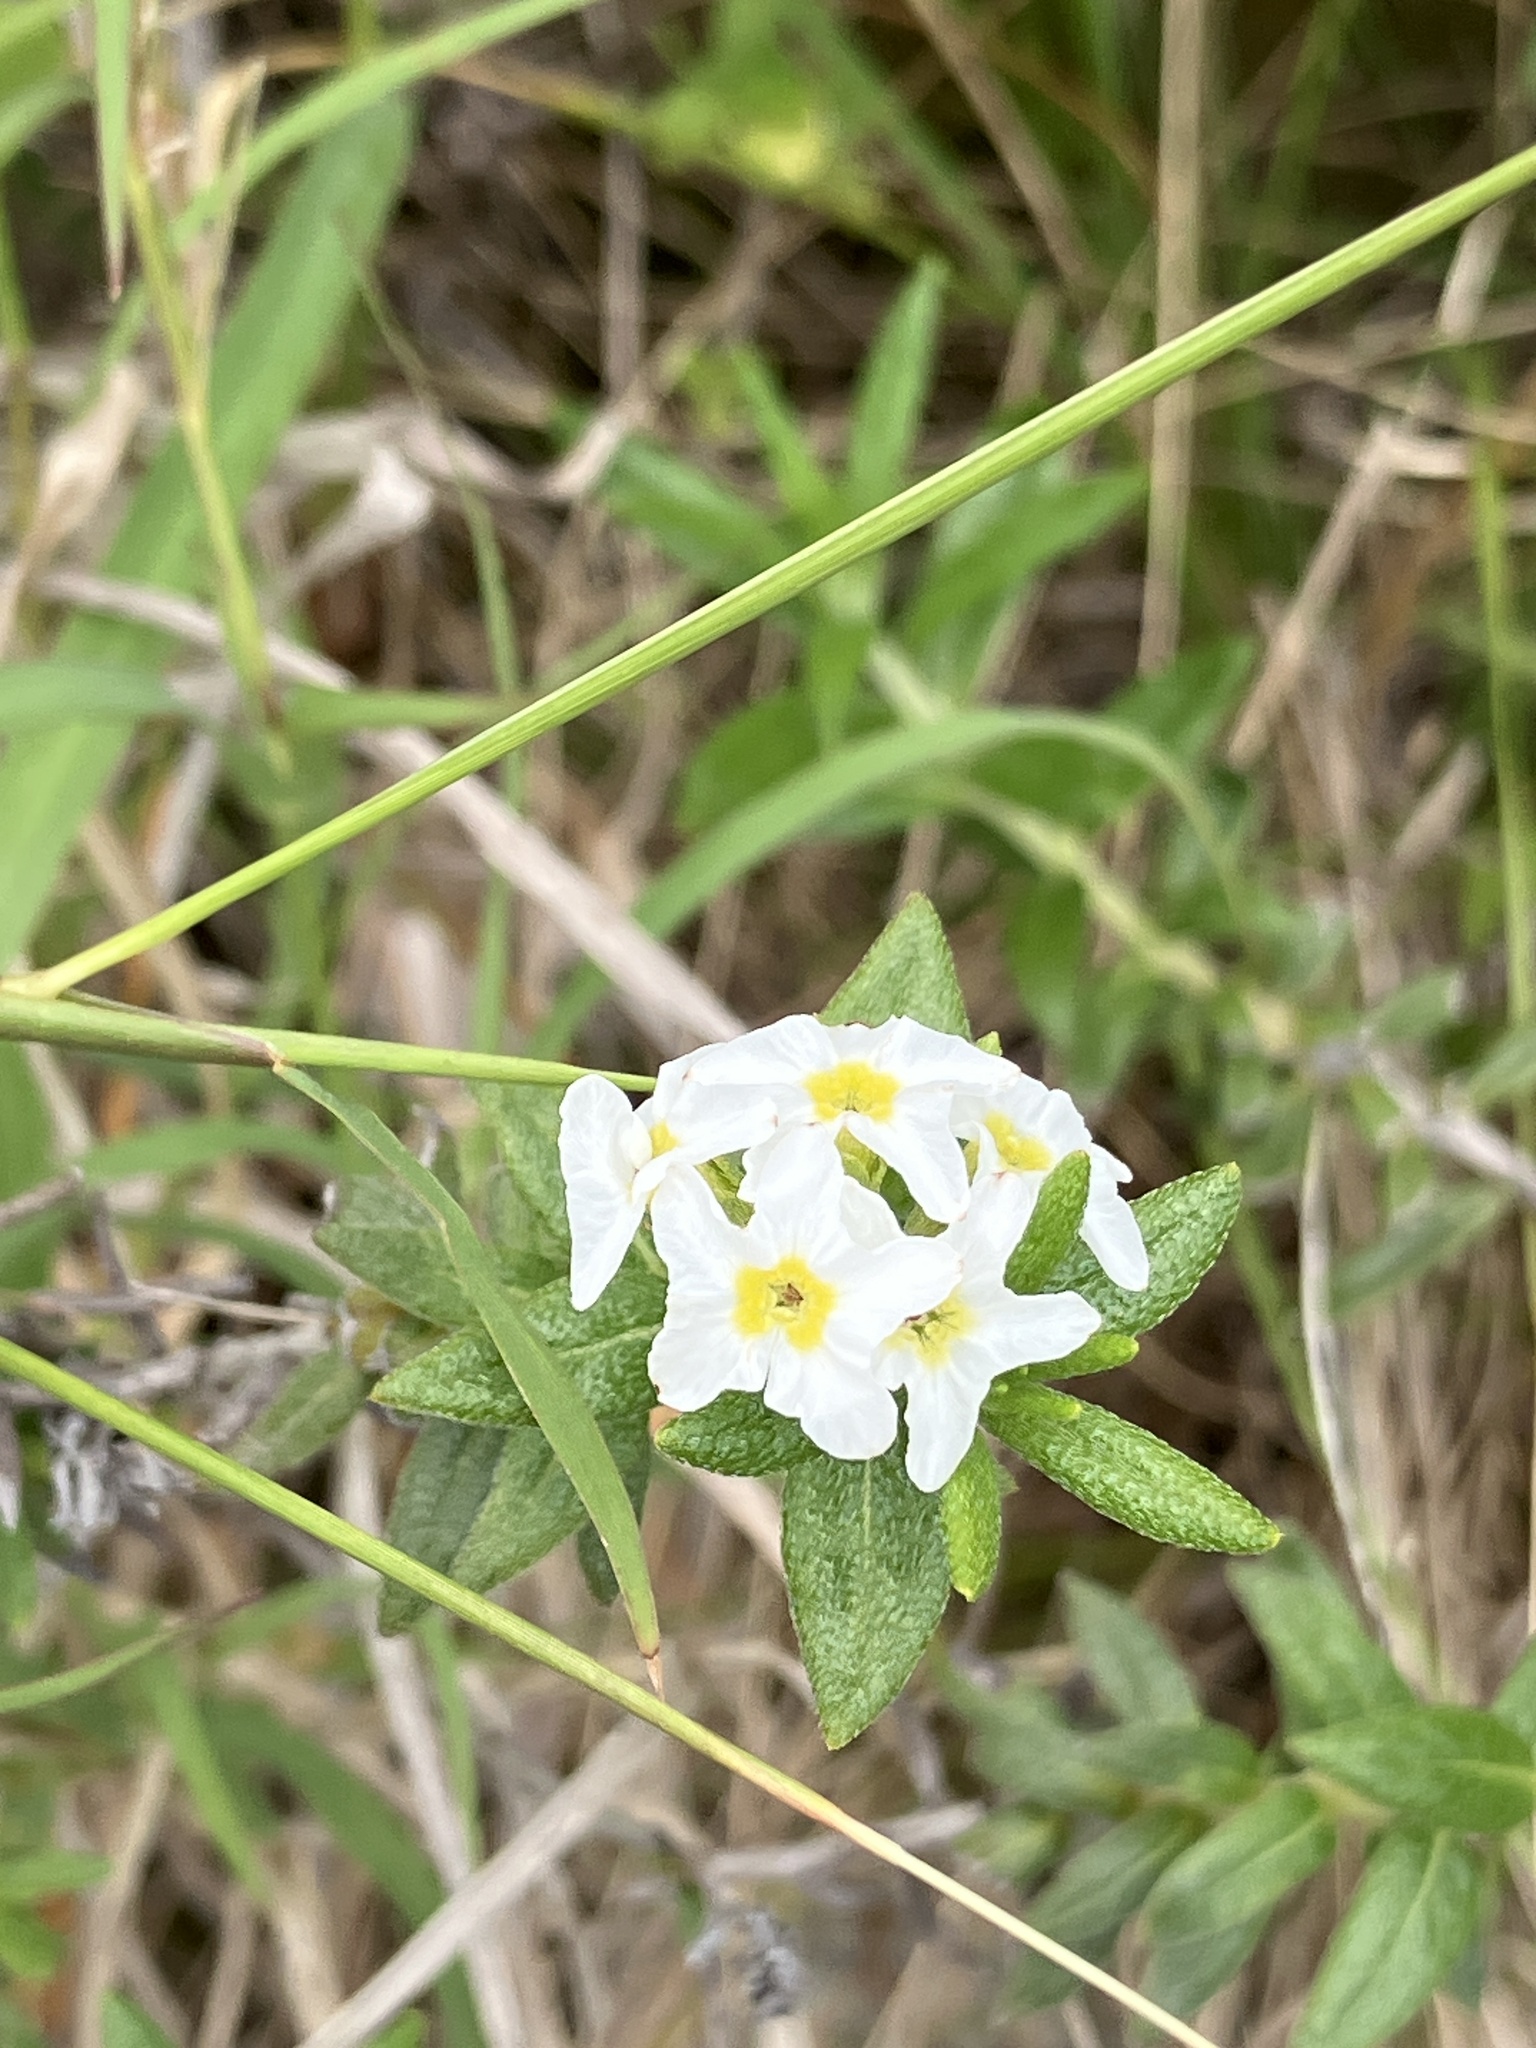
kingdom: Plantae
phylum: Tracheophyta
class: Magnoliopsida
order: Boraginales
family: Heliotropiaceae
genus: Euploca
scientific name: Euploca humilis
